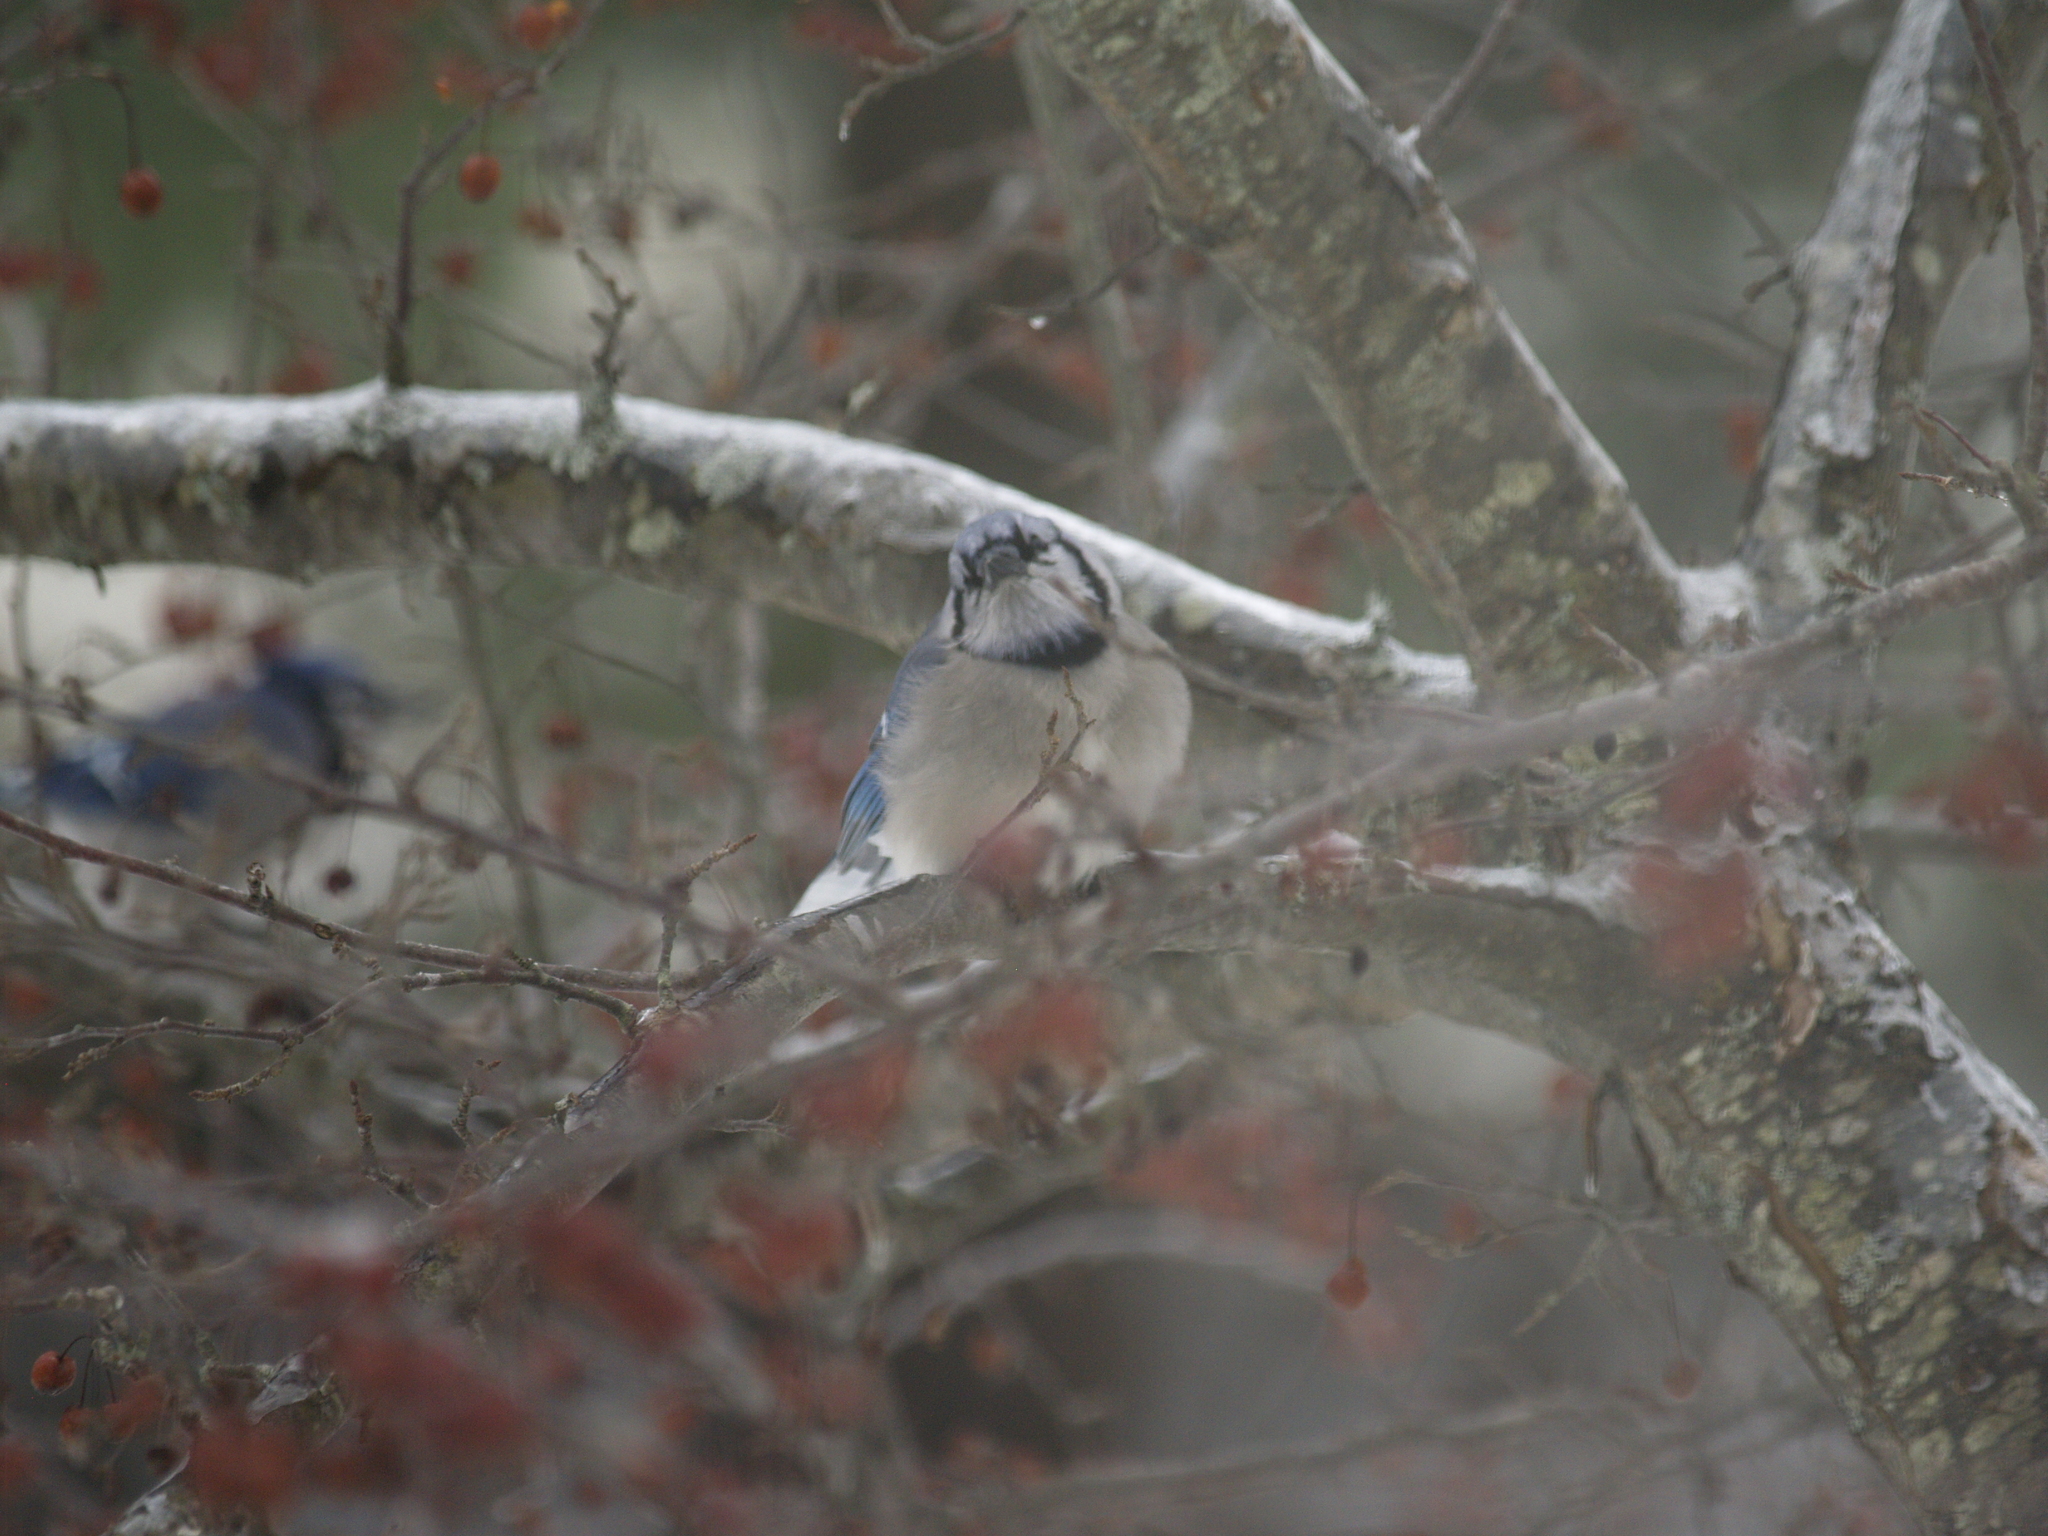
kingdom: Animalia
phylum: Chordata
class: Aves
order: Passeriformes
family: Corvidae
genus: Cyanocitta
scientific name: Cyanocitta cristata
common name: Blue jay
